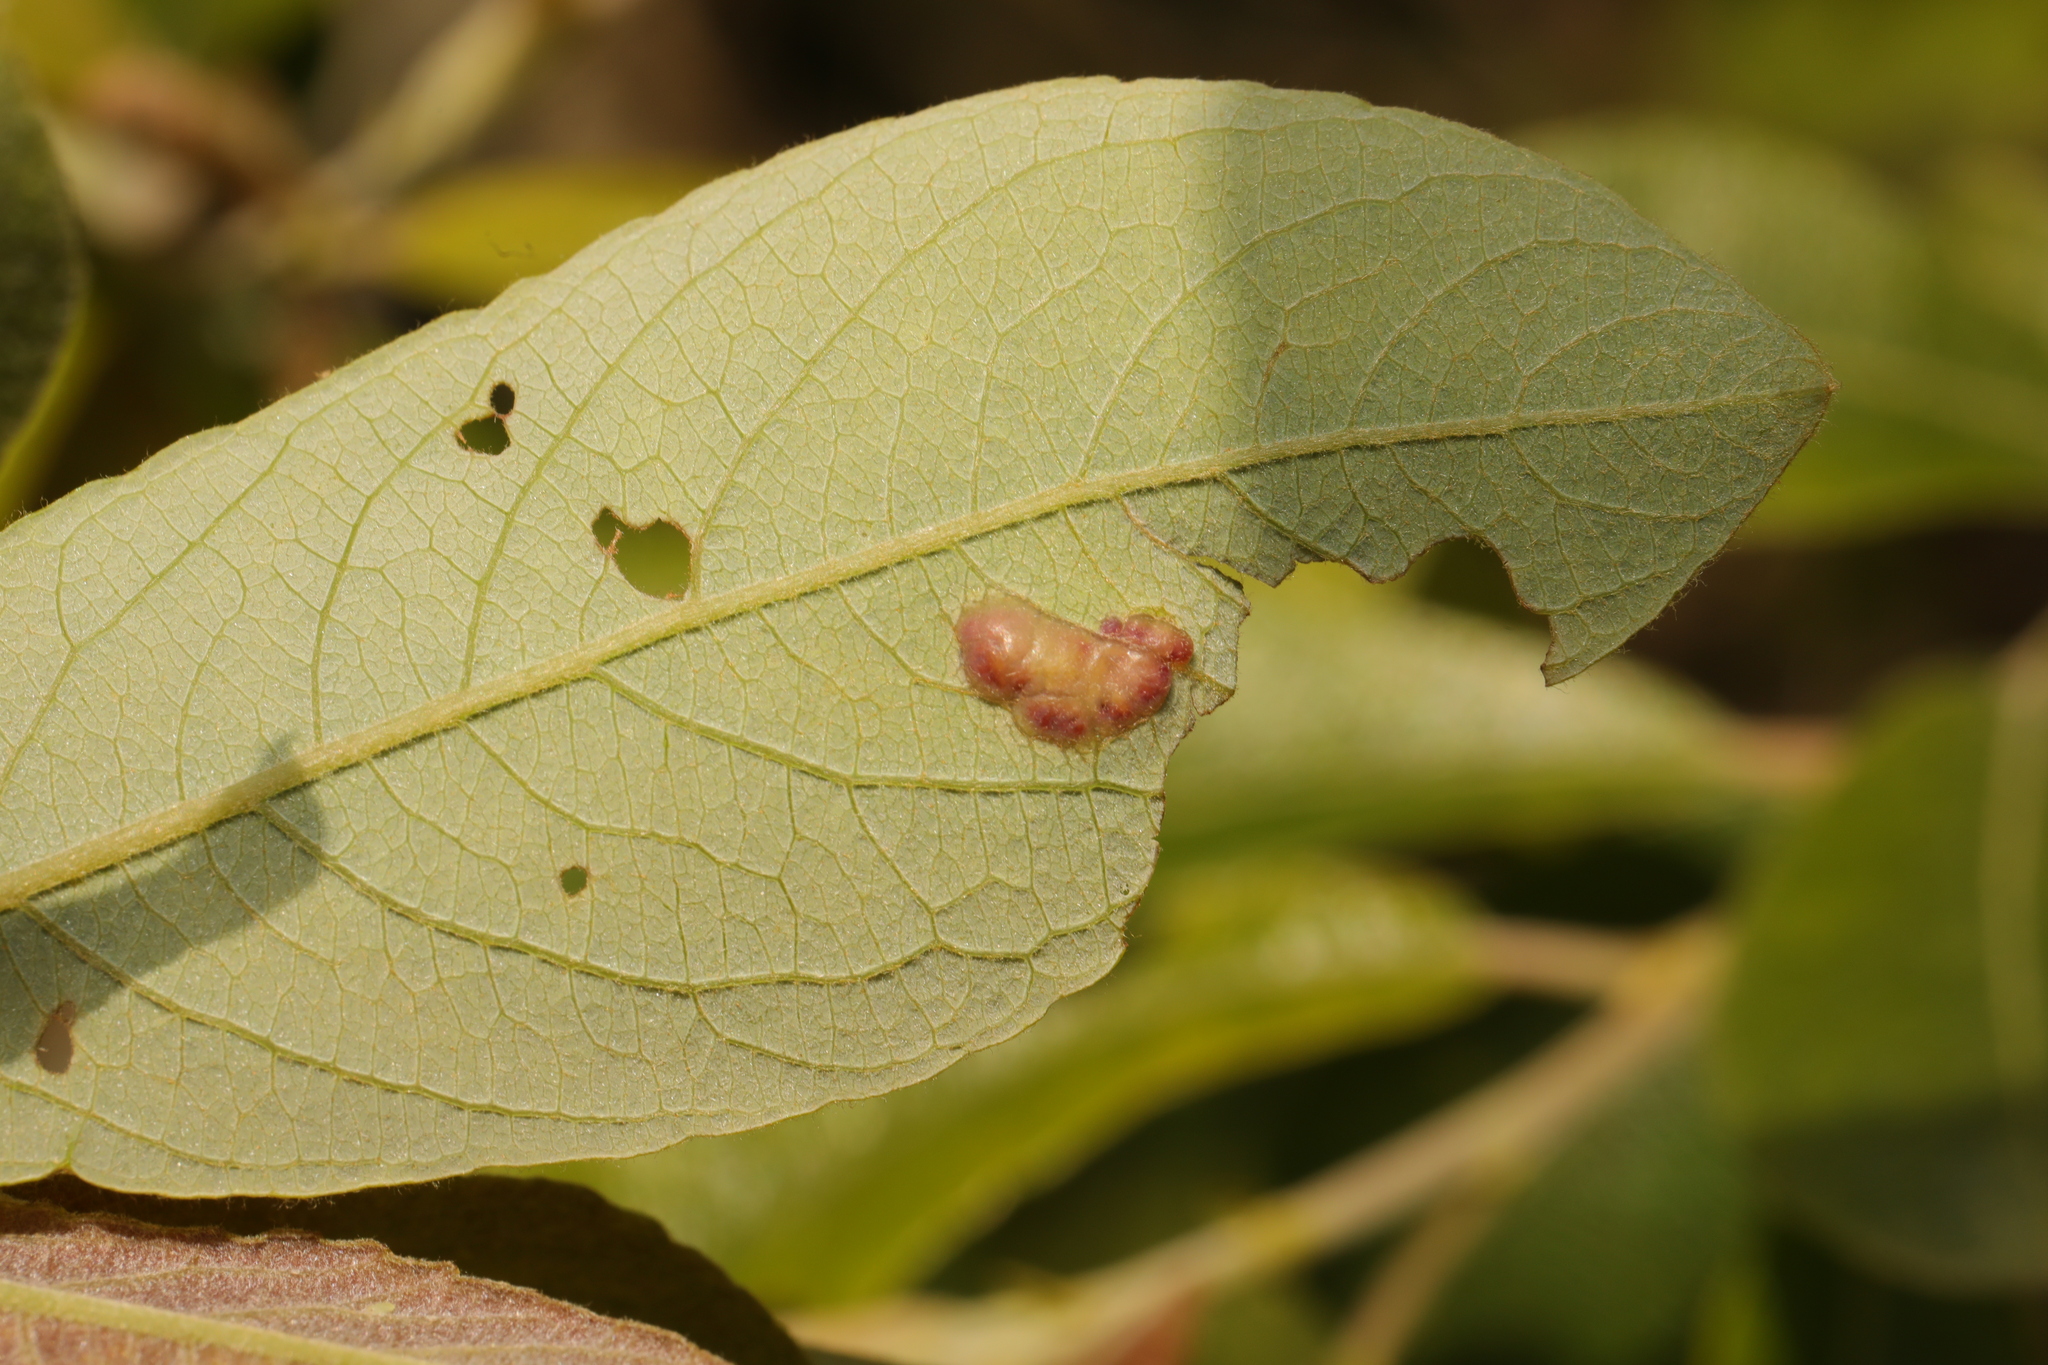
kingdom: Animalia
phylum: Arthropoda
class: Insecta
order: Diptera
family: Cecidomyiidae
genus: Iteomyia
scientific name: Iteomyia major
